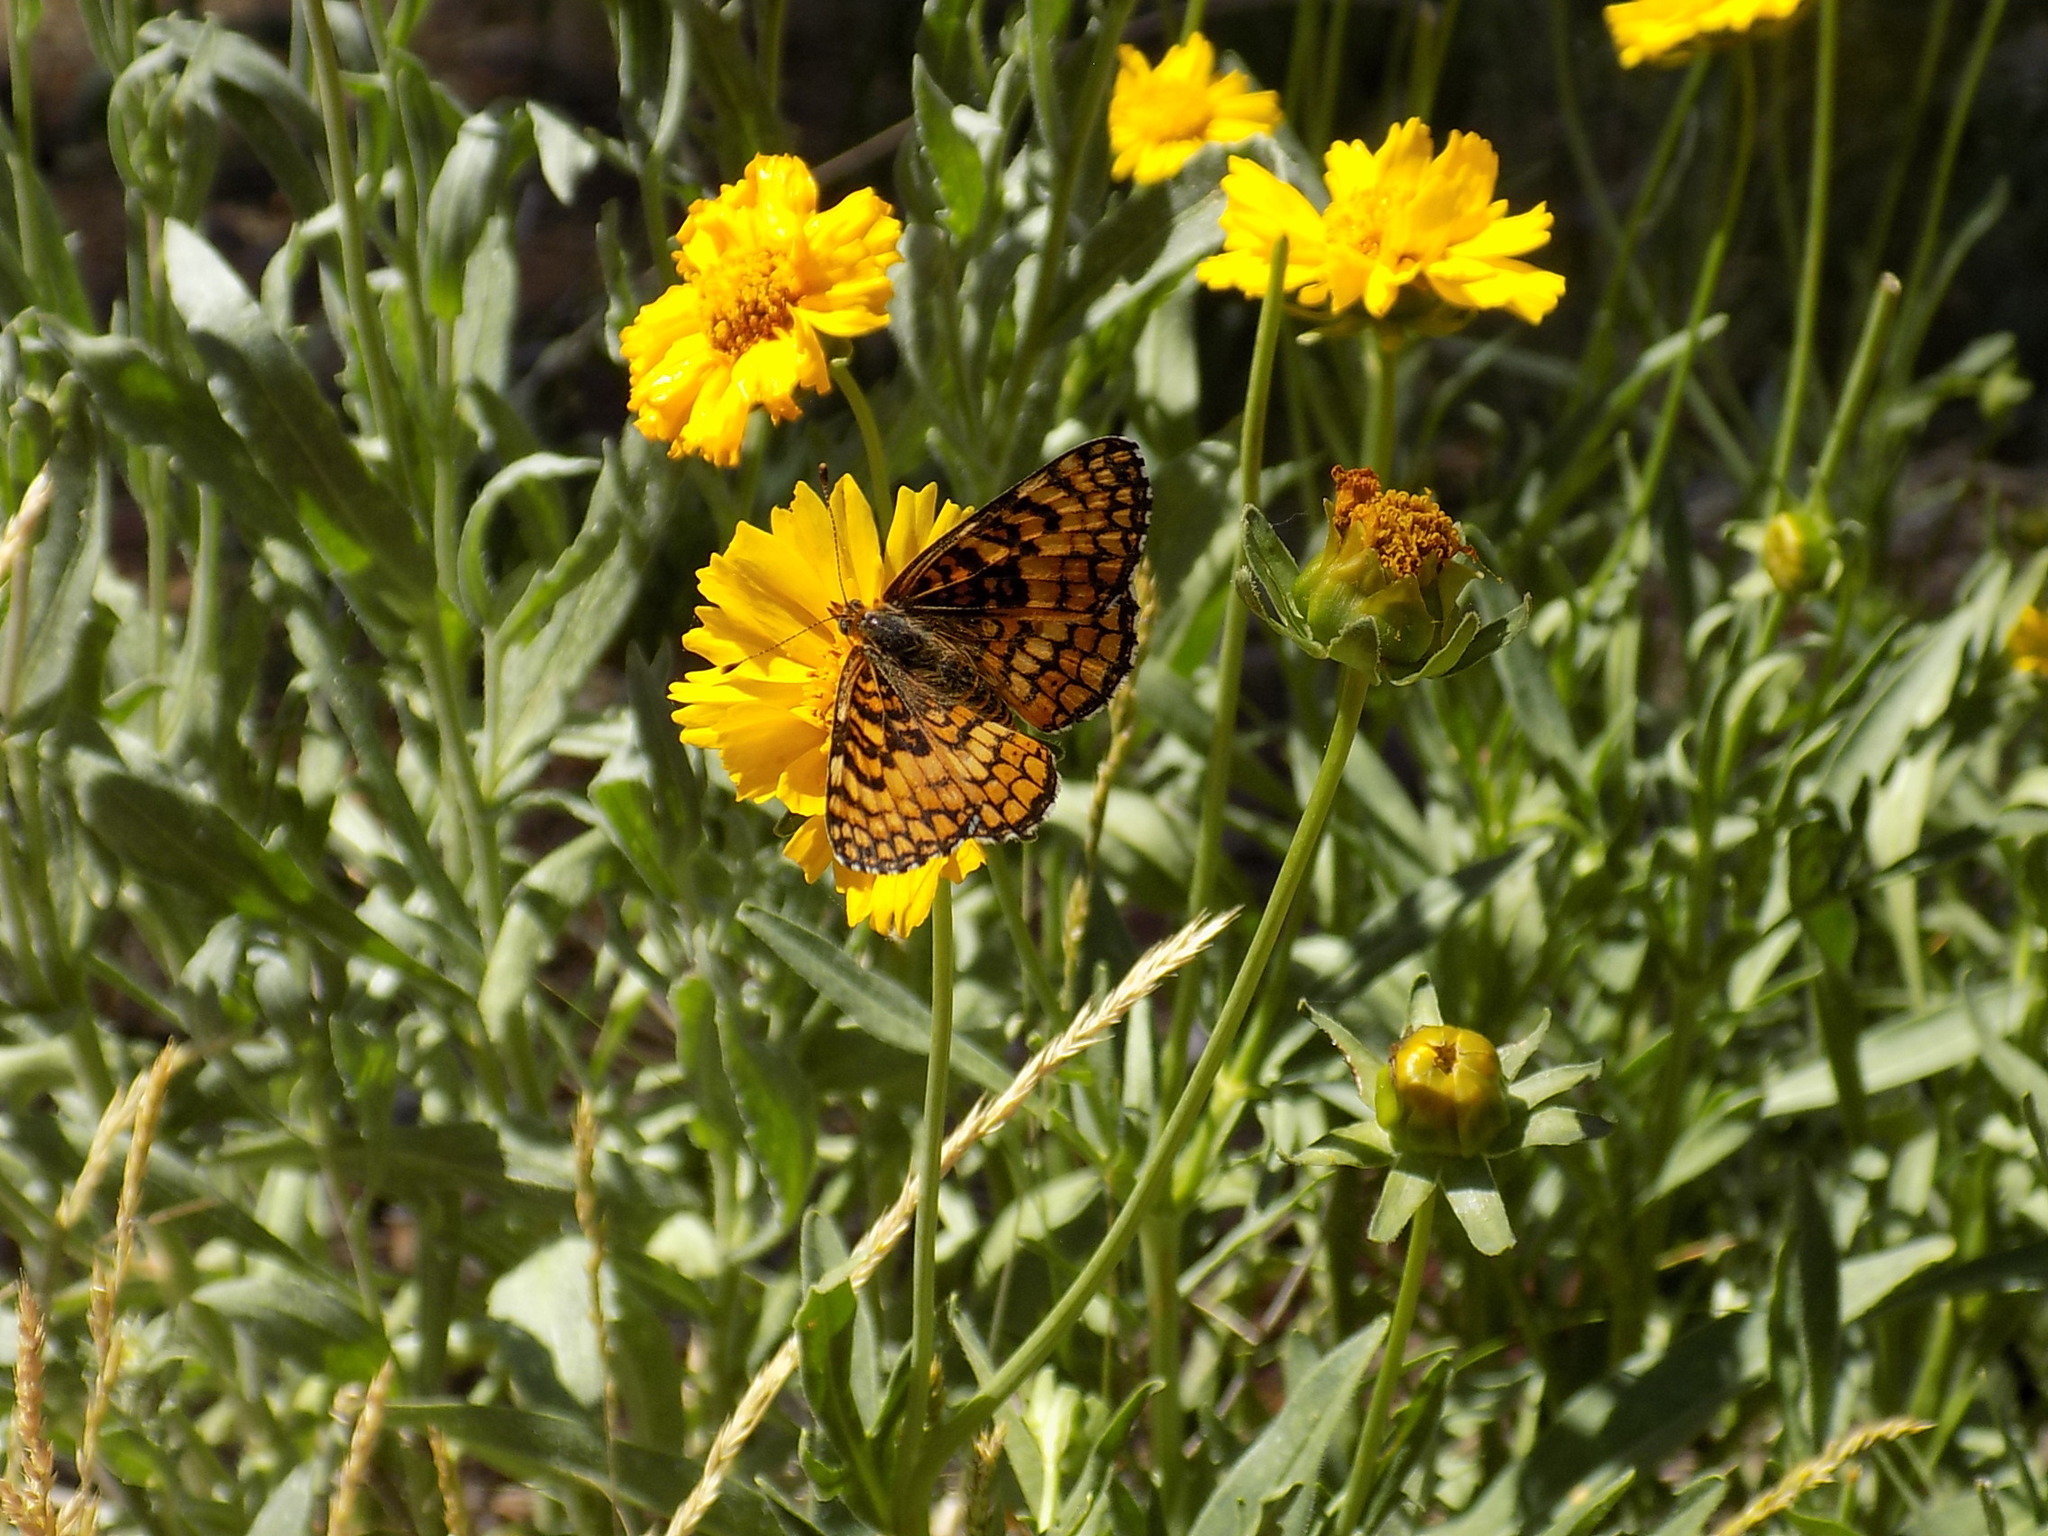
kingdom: Animalia
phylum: Arthropoda
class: Insecta
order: Lepidoptera
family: Nymphalidae
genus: Chlosyne
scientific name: Chlosyne acastus
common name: Sagebrush checkerspot
